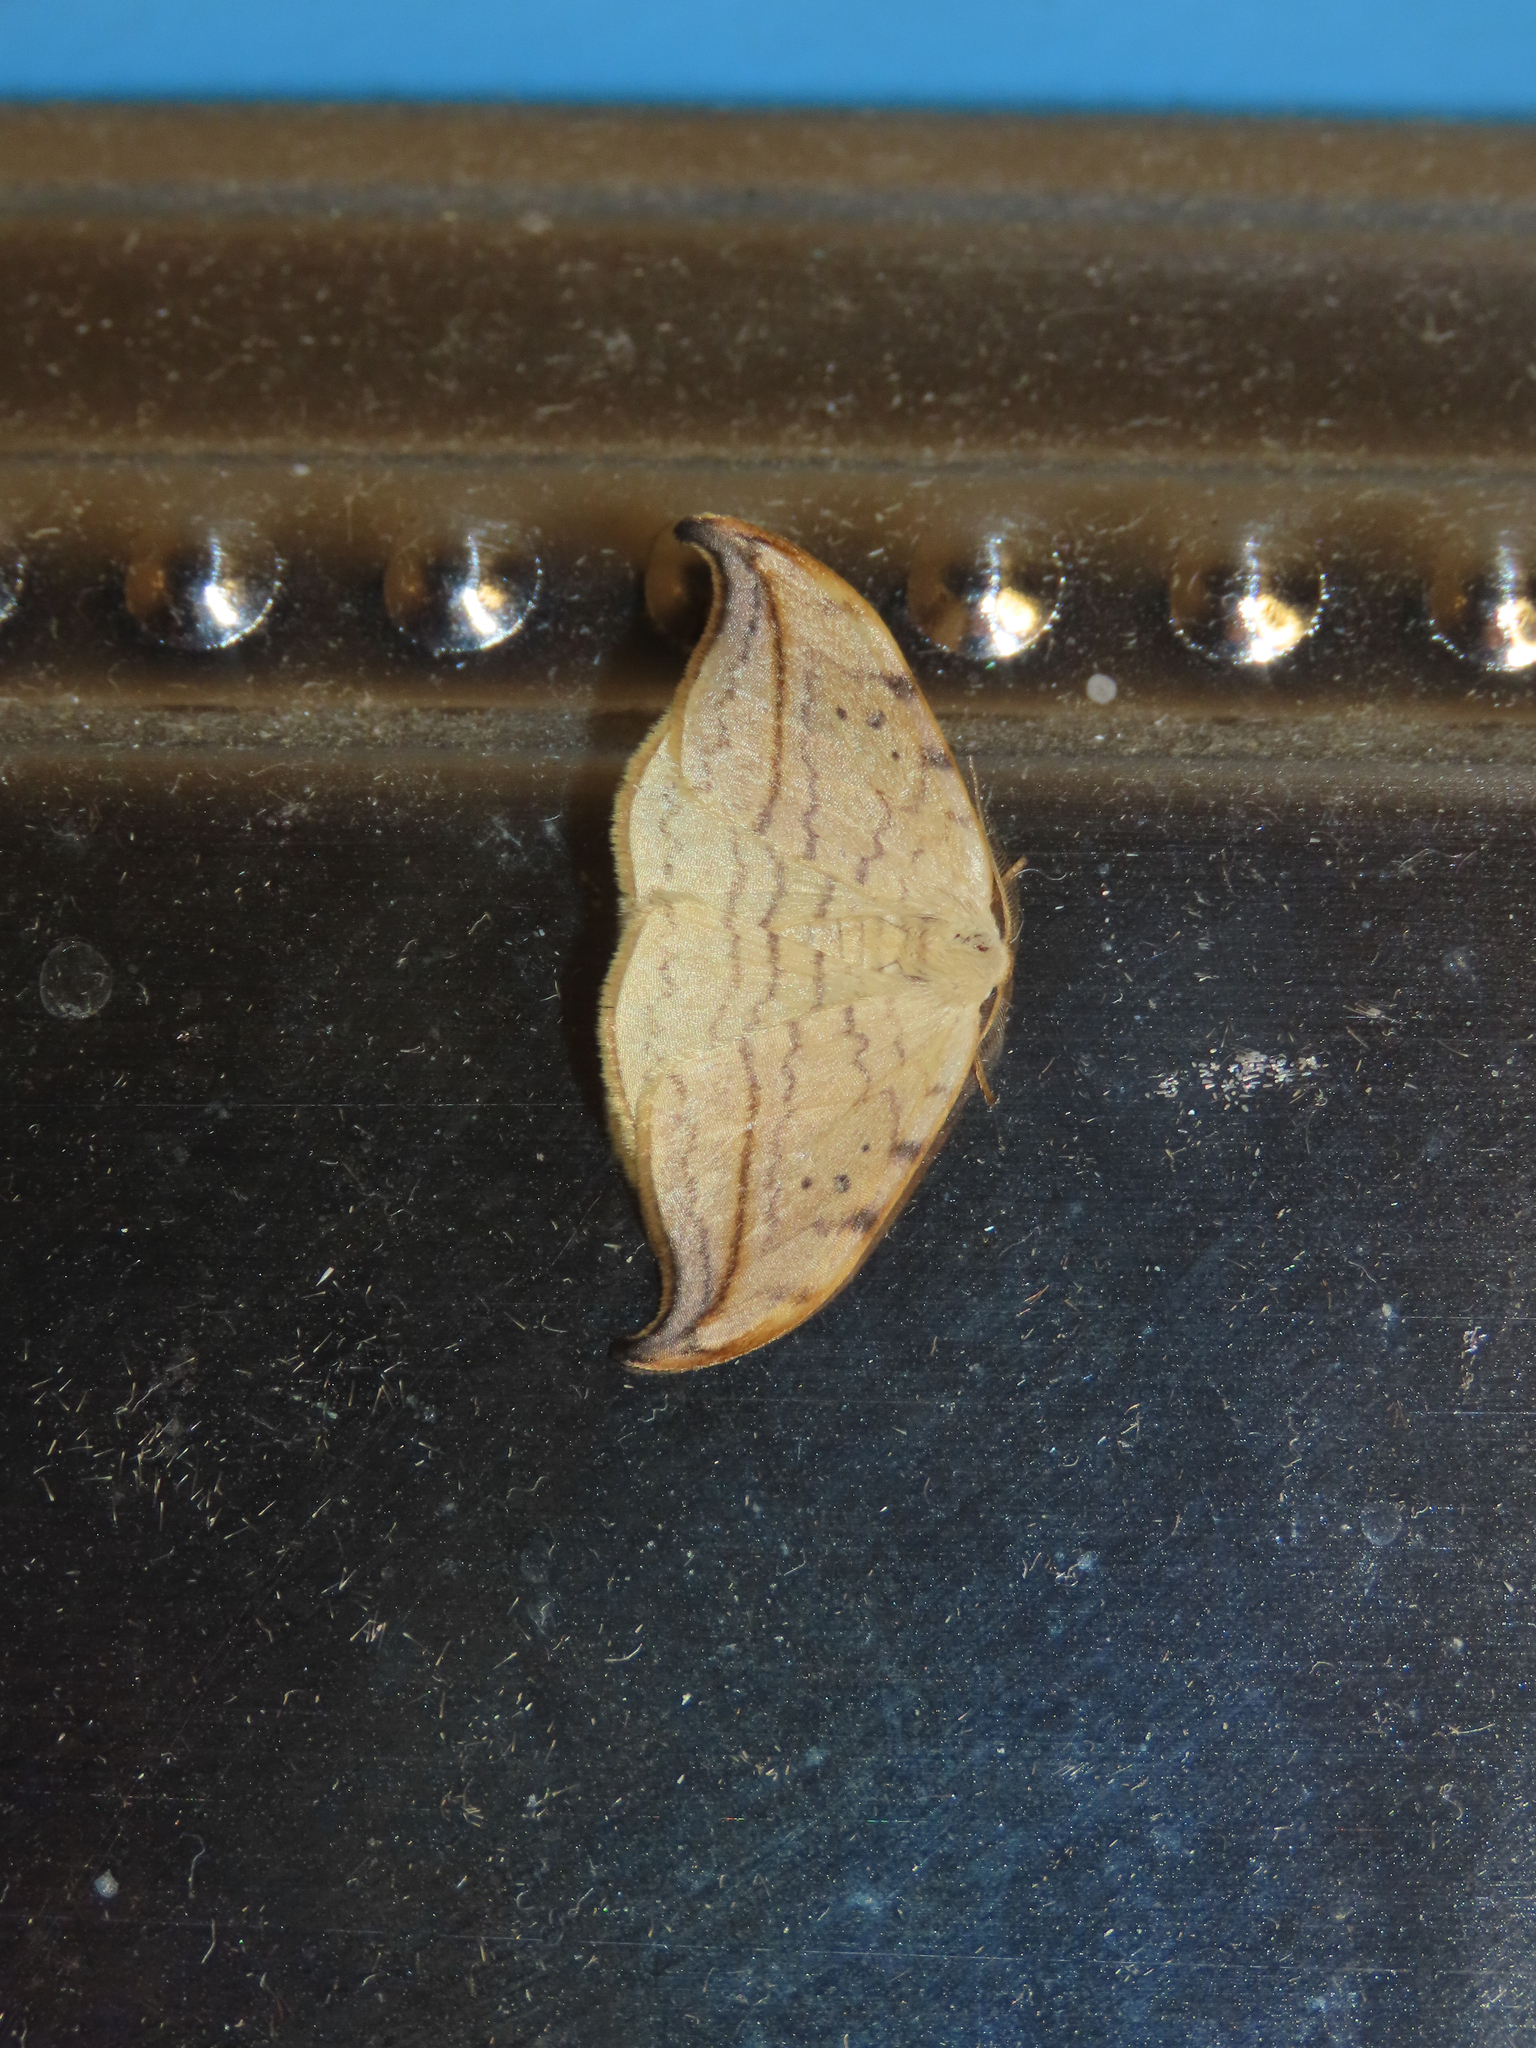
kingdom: Animalia
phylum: Arthropoda
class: Insecta
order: Lepidoptera
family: Drepanidae
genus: Drepana
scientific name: Drepana arcuata
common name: Arched hooktip moth
